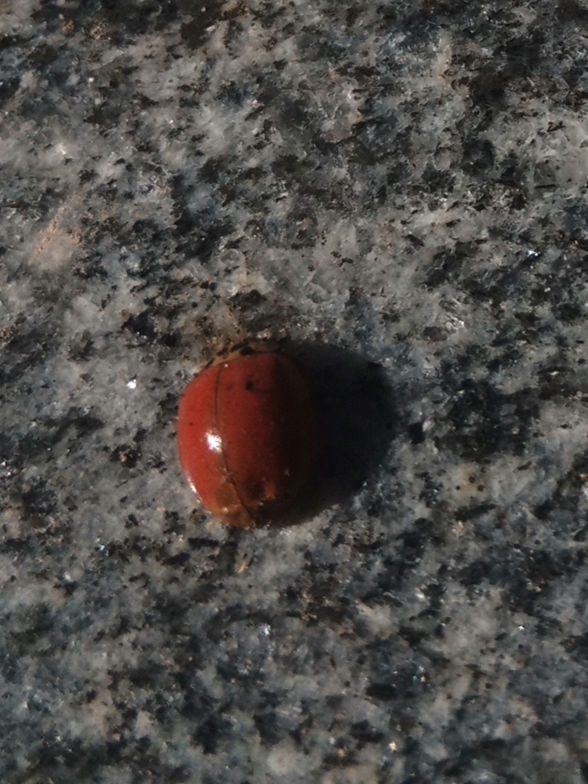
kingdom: Animalia
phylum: Arthropoda
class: Insecta
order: Coleoptera
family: Coccinellidae
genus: Harmonia
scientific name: Harmonia axyridis
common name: Harlequin ladybird
